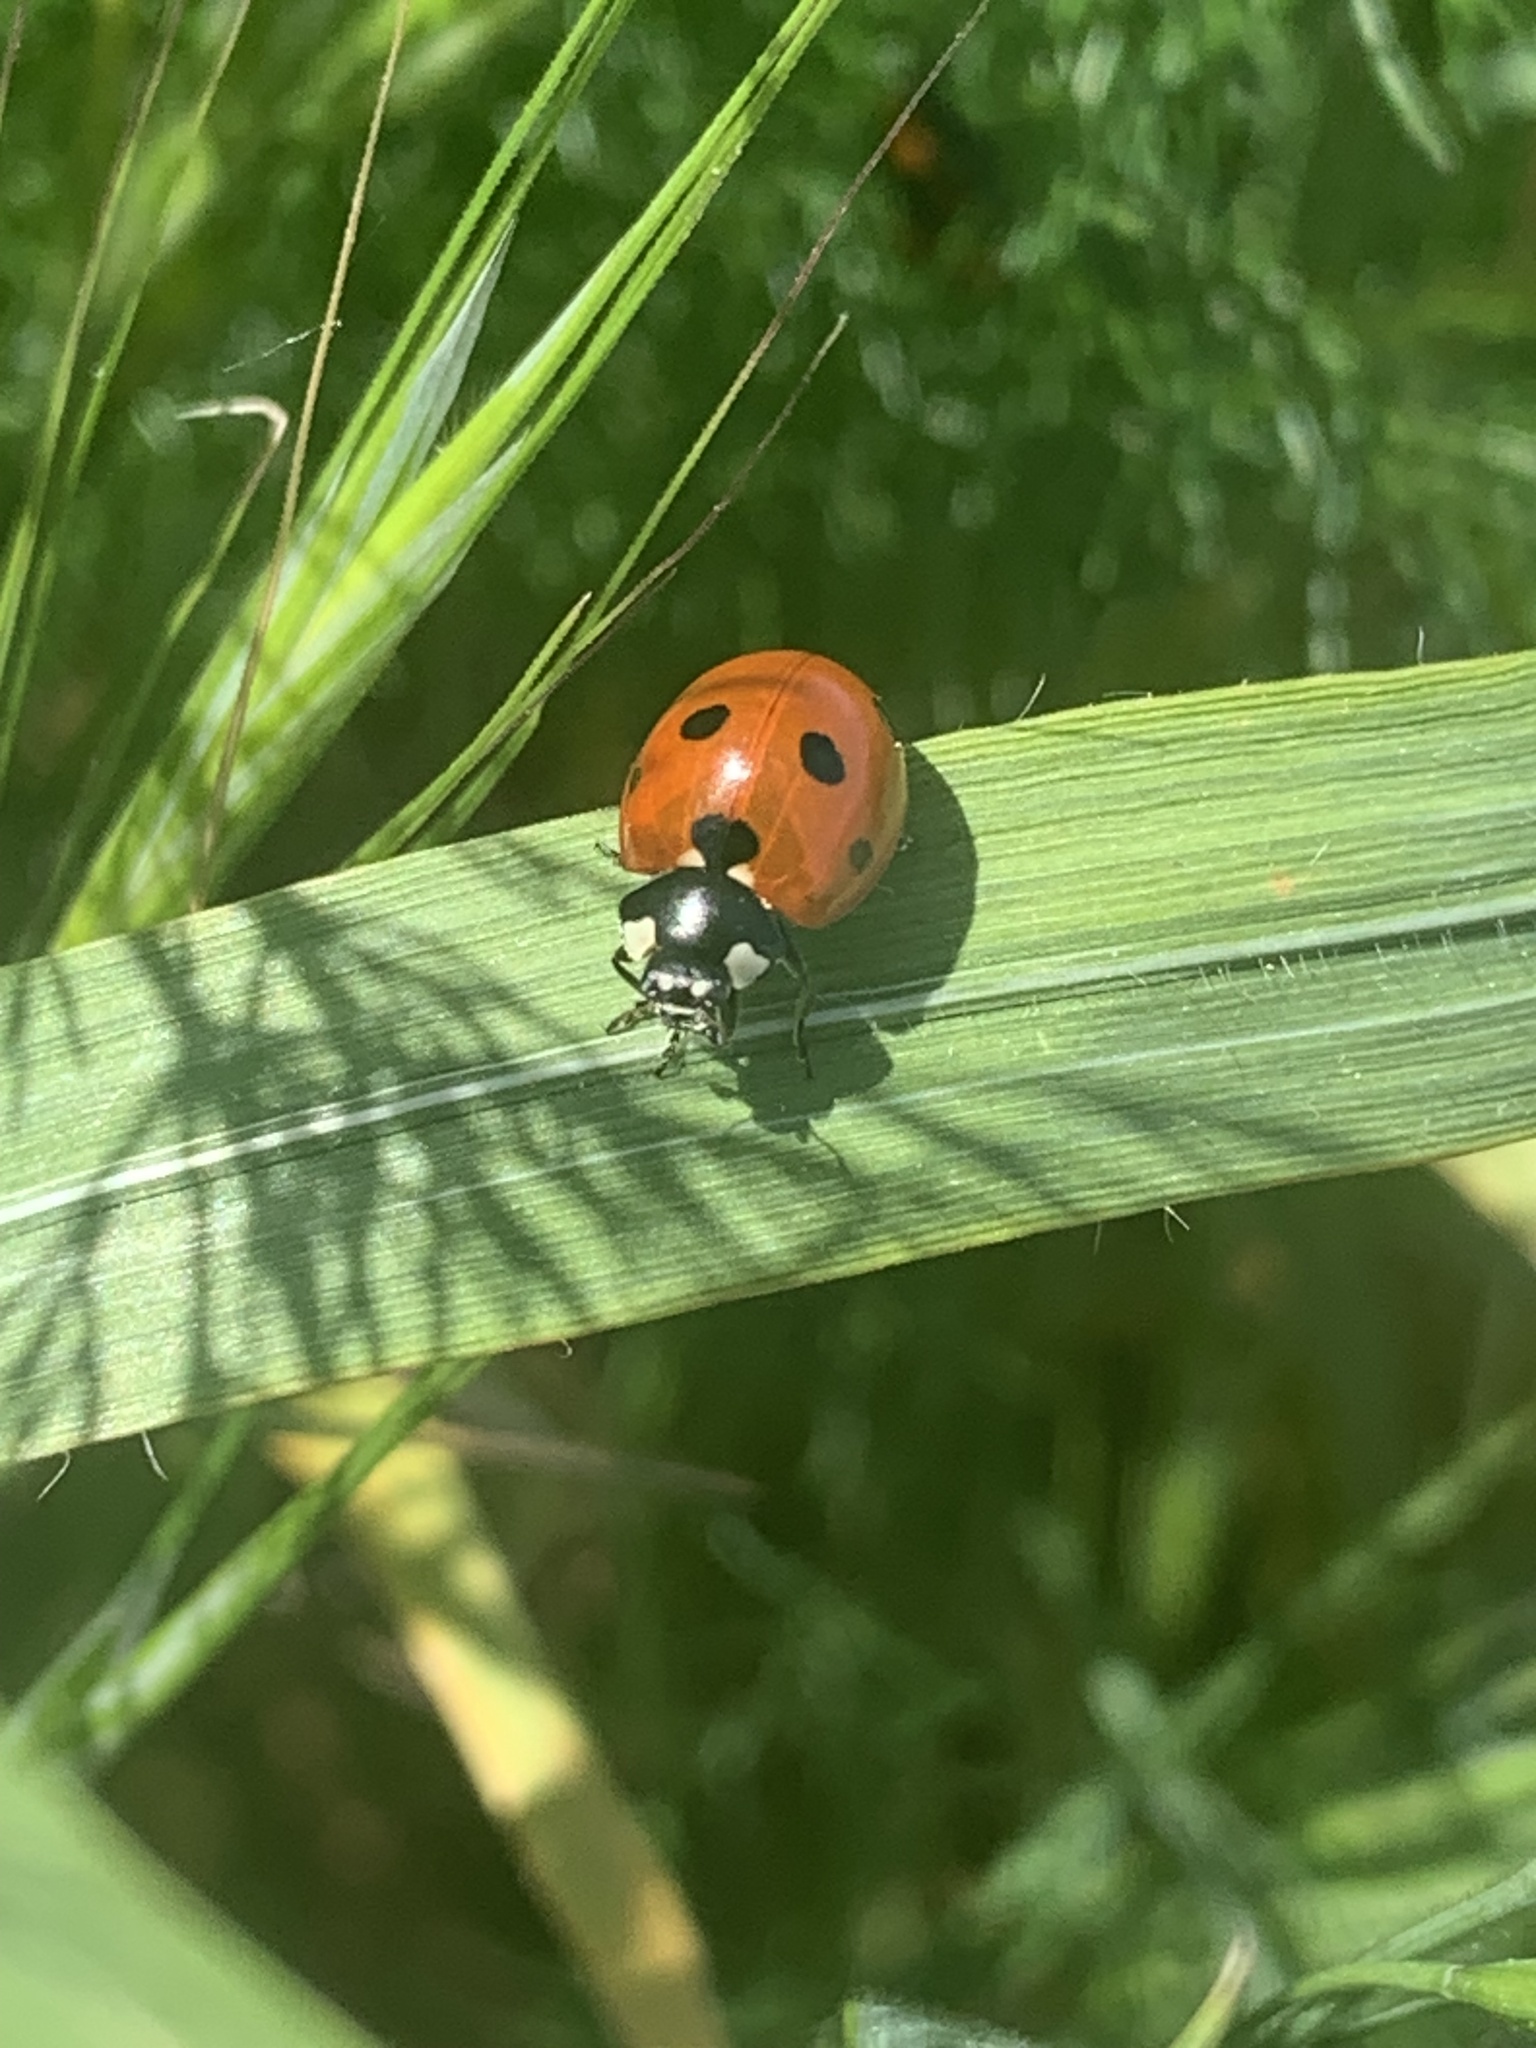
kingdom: Animalia
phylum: Arthropoda
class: Insecta
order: Coleoptera
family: Coccinellidae
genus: Coccinella
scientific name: Coccinella septempunctata
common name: Sevenspotted lady beetle
